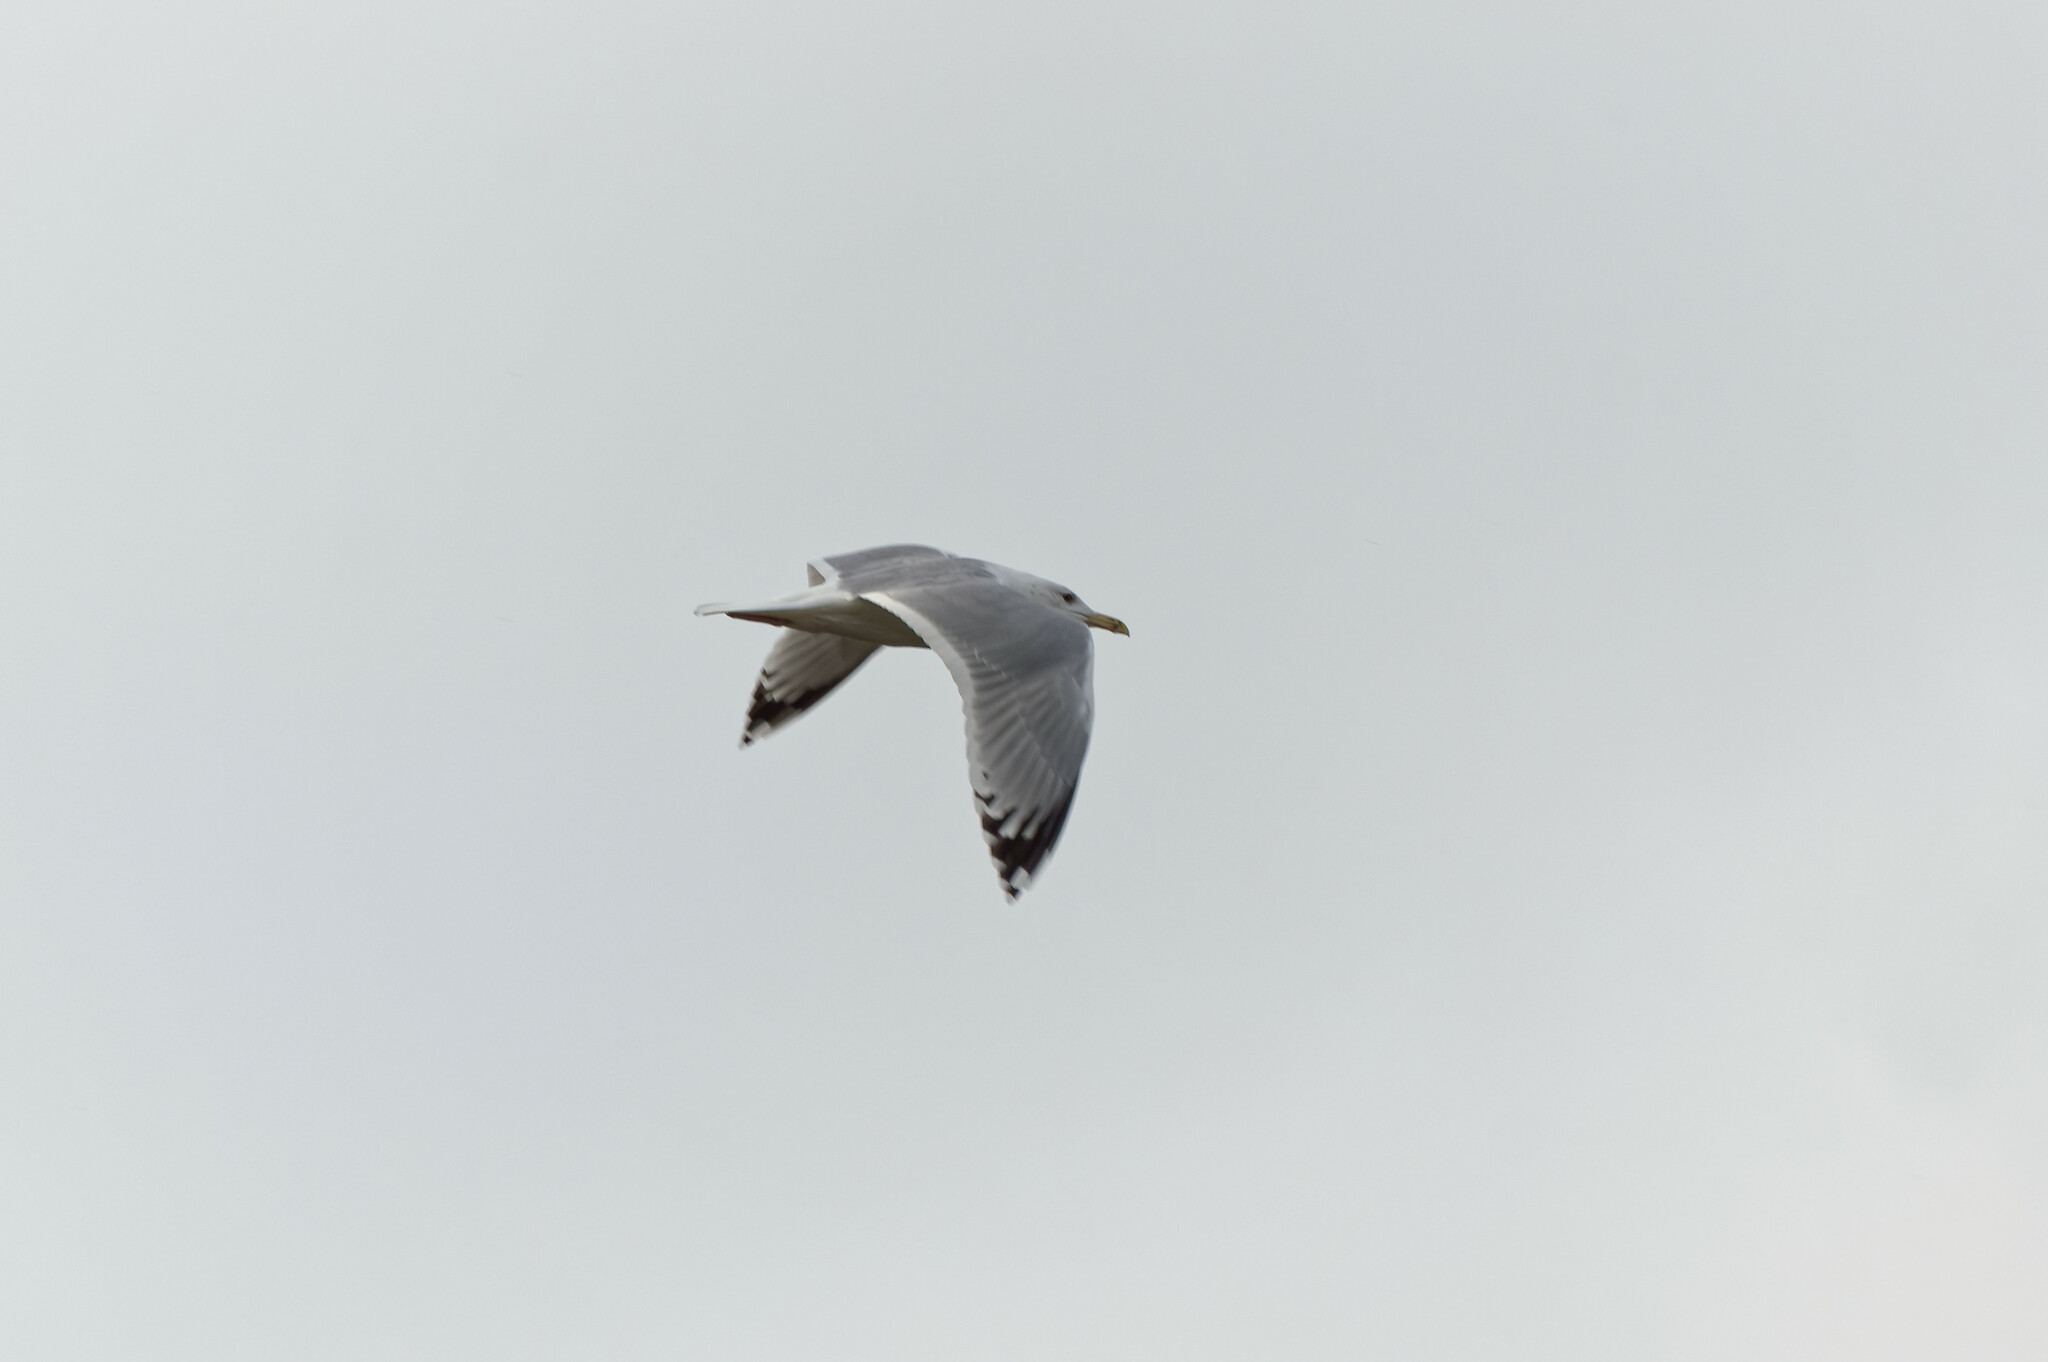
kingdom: Animalia
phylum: Chordata
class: Aves
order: Charadriiformes
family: Laridae
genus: Larus
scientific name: Larus cachinnans
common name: Caspian gull
